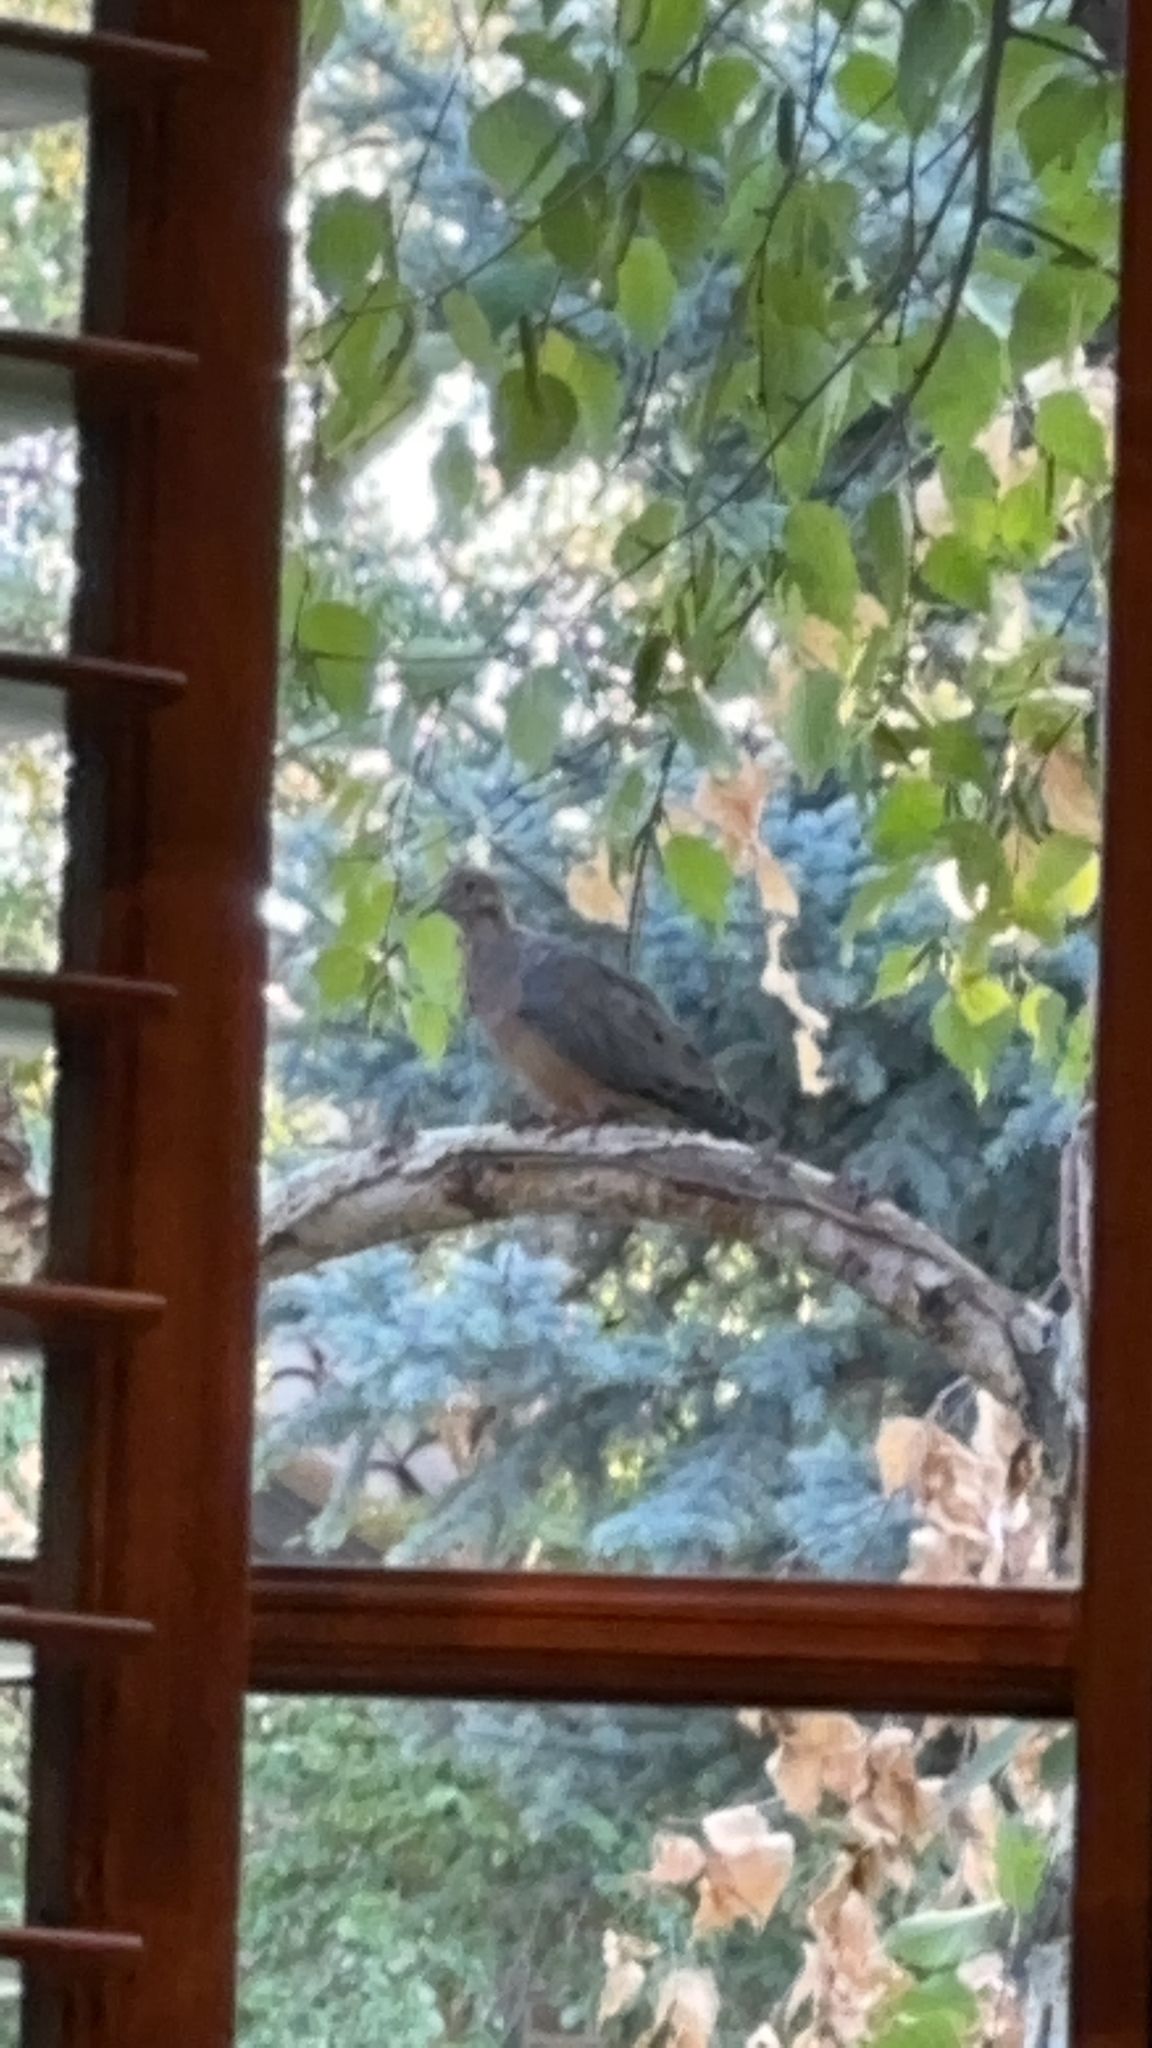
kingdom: Animalia
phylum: Chordata
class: Aves
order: Columbiformes
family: Columbidae
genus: Zenaida
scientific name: Zenaida macroura
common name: Mourning dove
